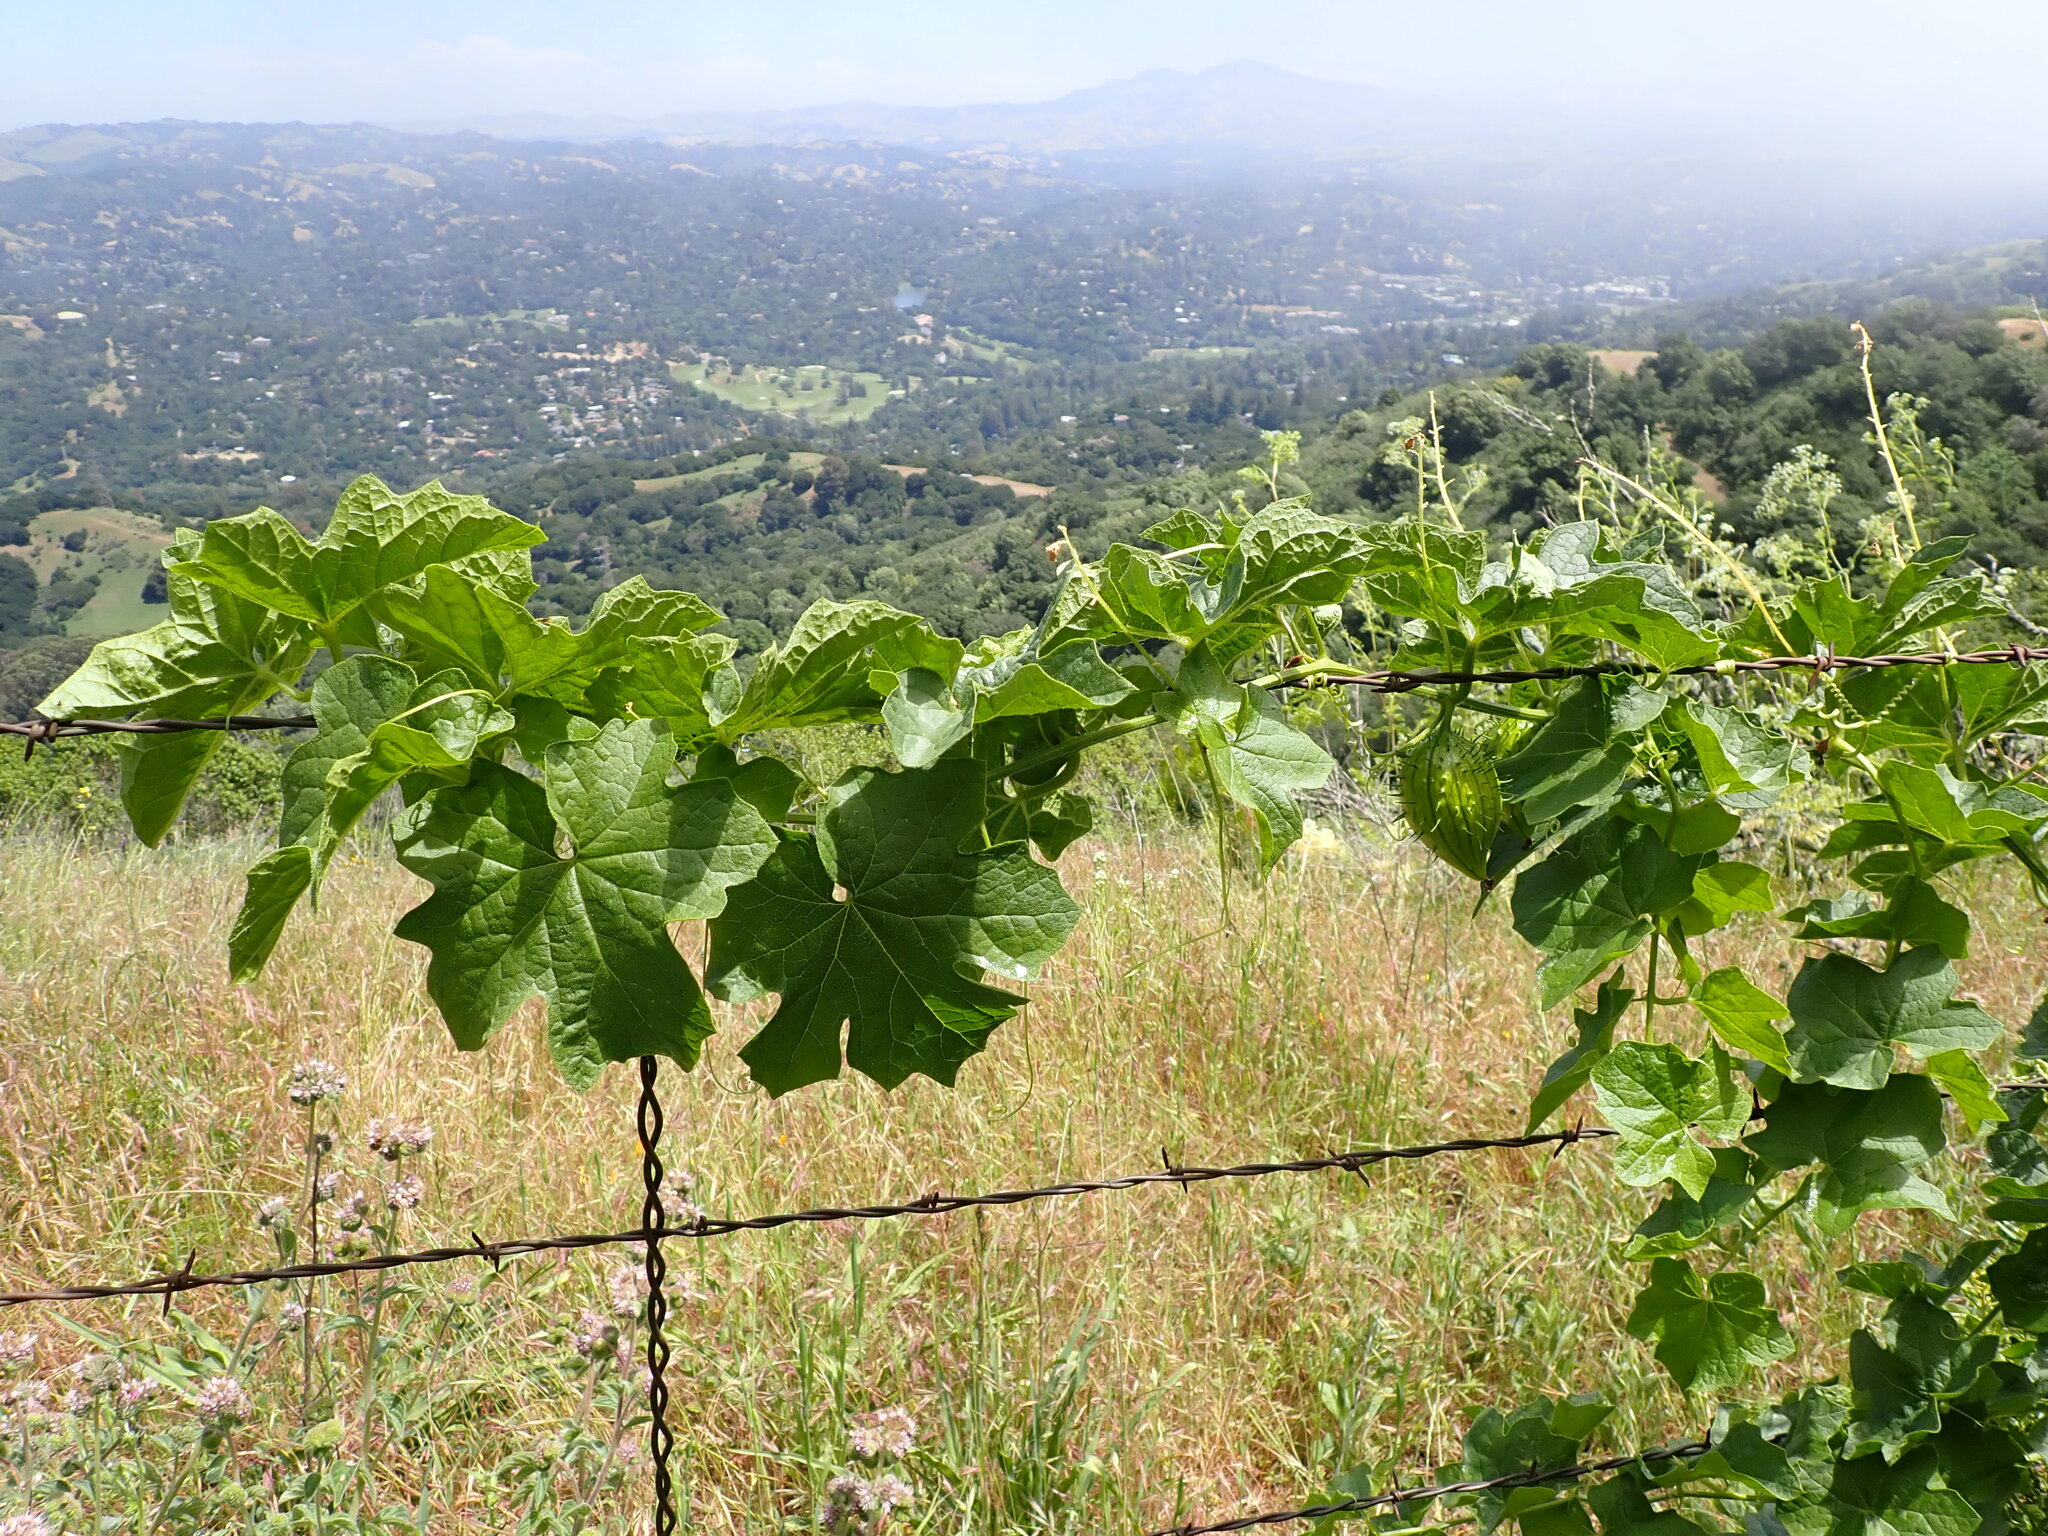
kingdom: Plantae
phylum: Tracheophyta
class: Magnoliopsida
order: Cucurbitales
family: Cucurbitaceae
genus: Marah
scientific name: Marah oregana
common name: Coastal manroot
